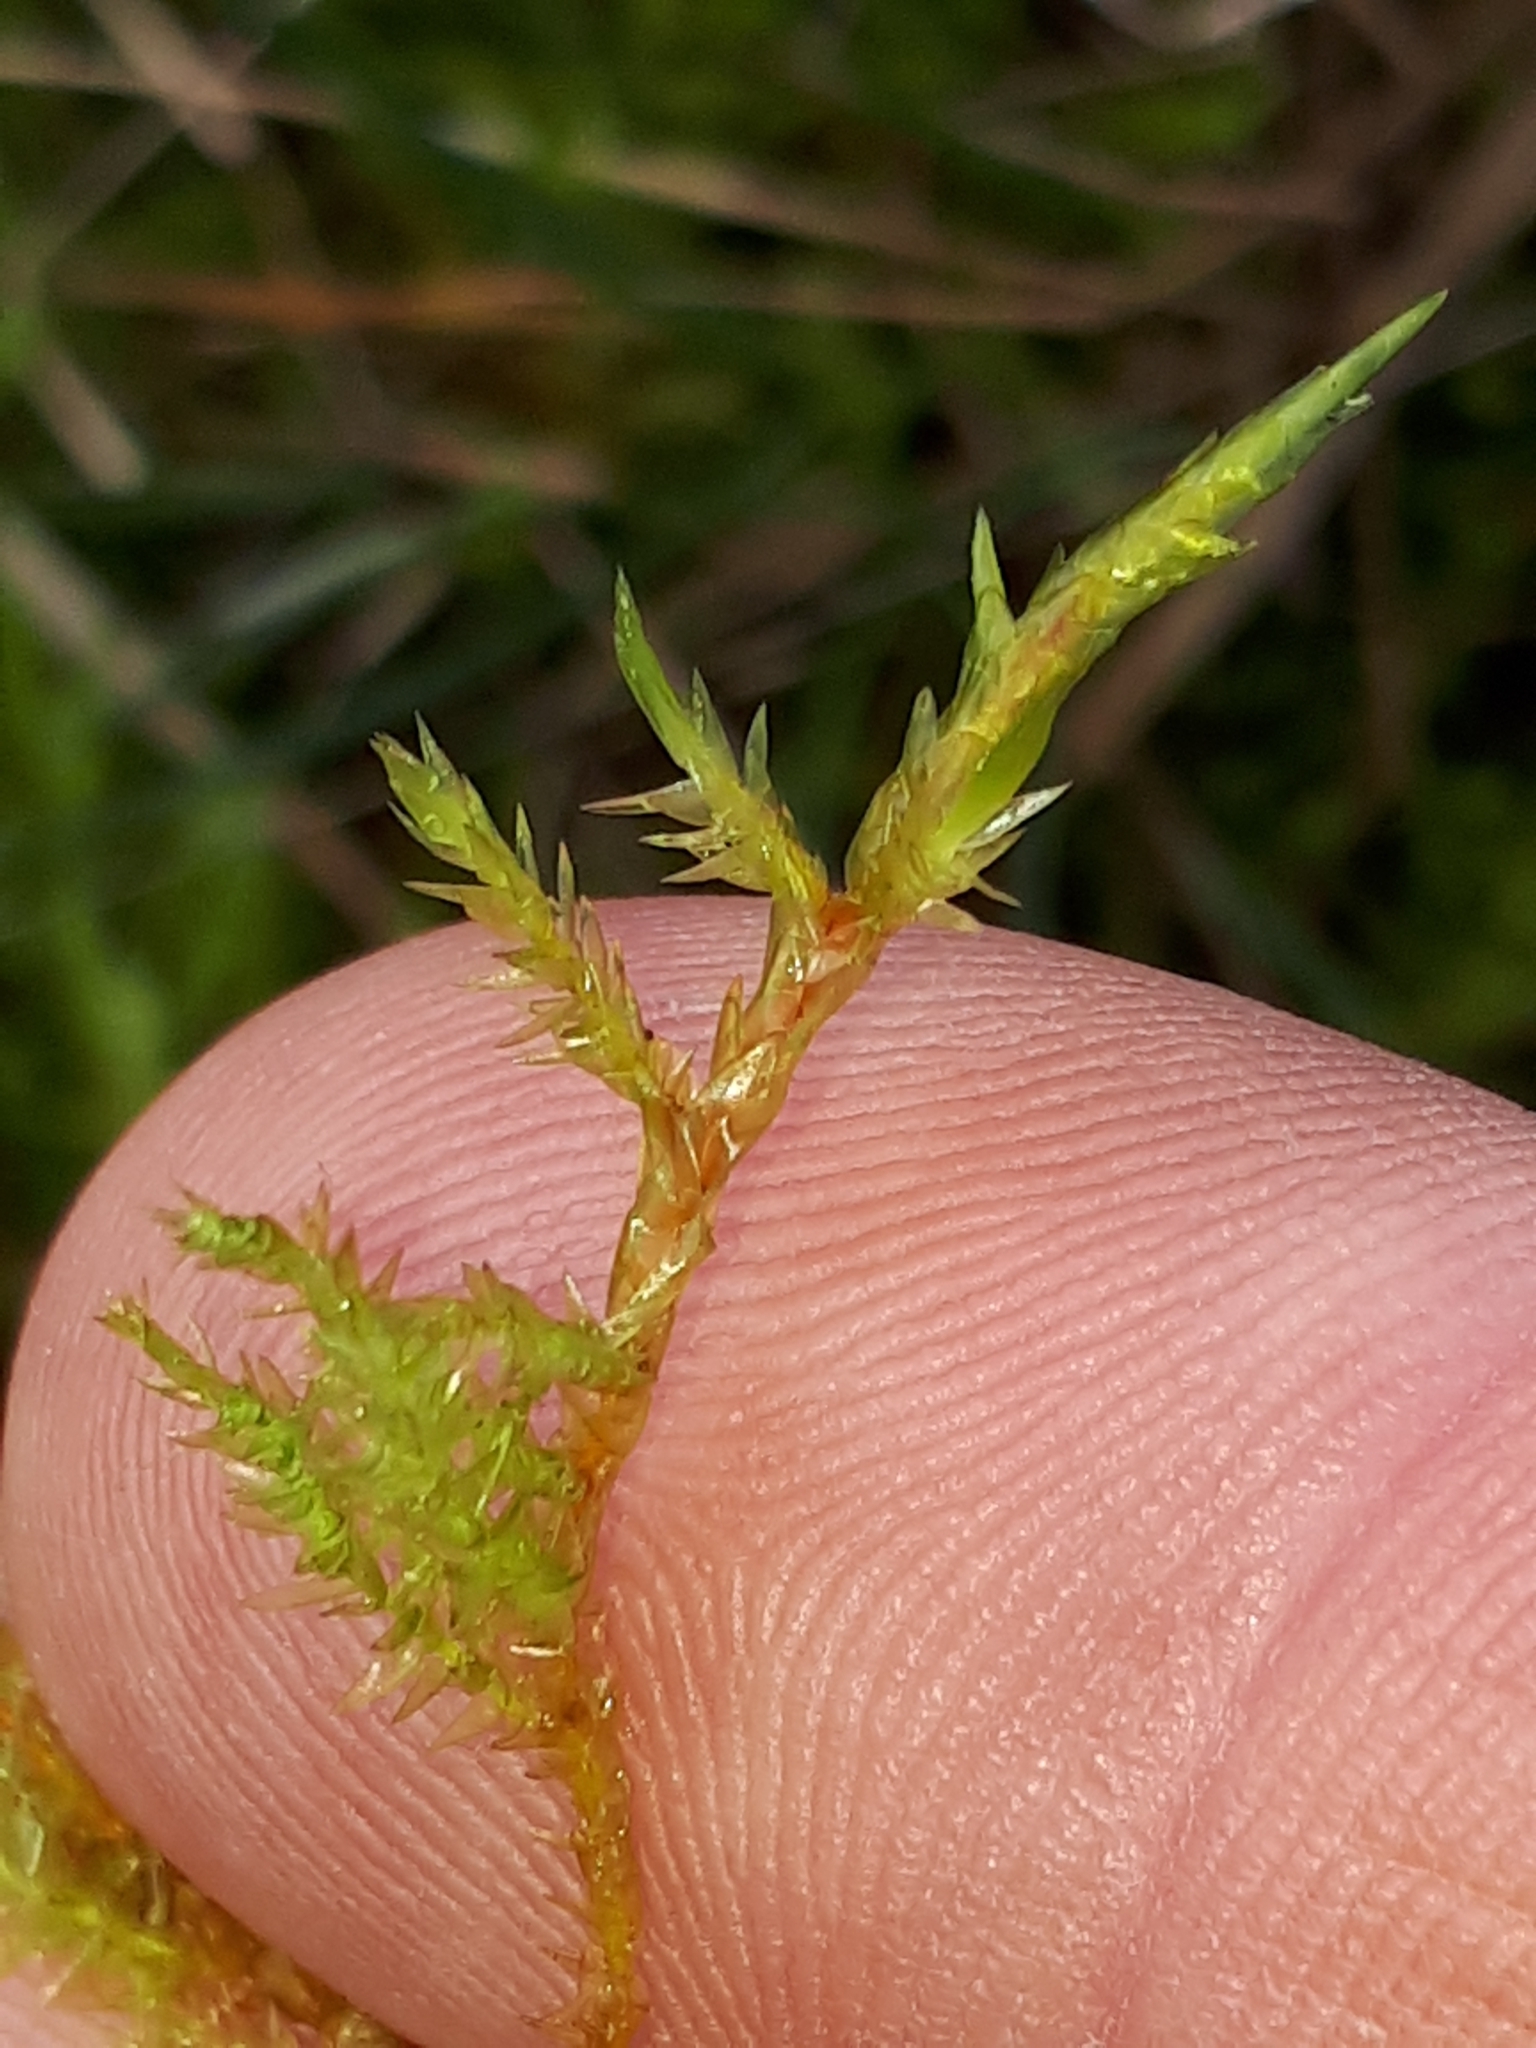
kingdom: Plantae
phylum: Bryophyta
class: Bryopsida
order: Hypnales
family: Pylaisiaceae
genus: Calliergonella
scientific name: Calliergonella cuspidata
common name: Common large wetland moss
